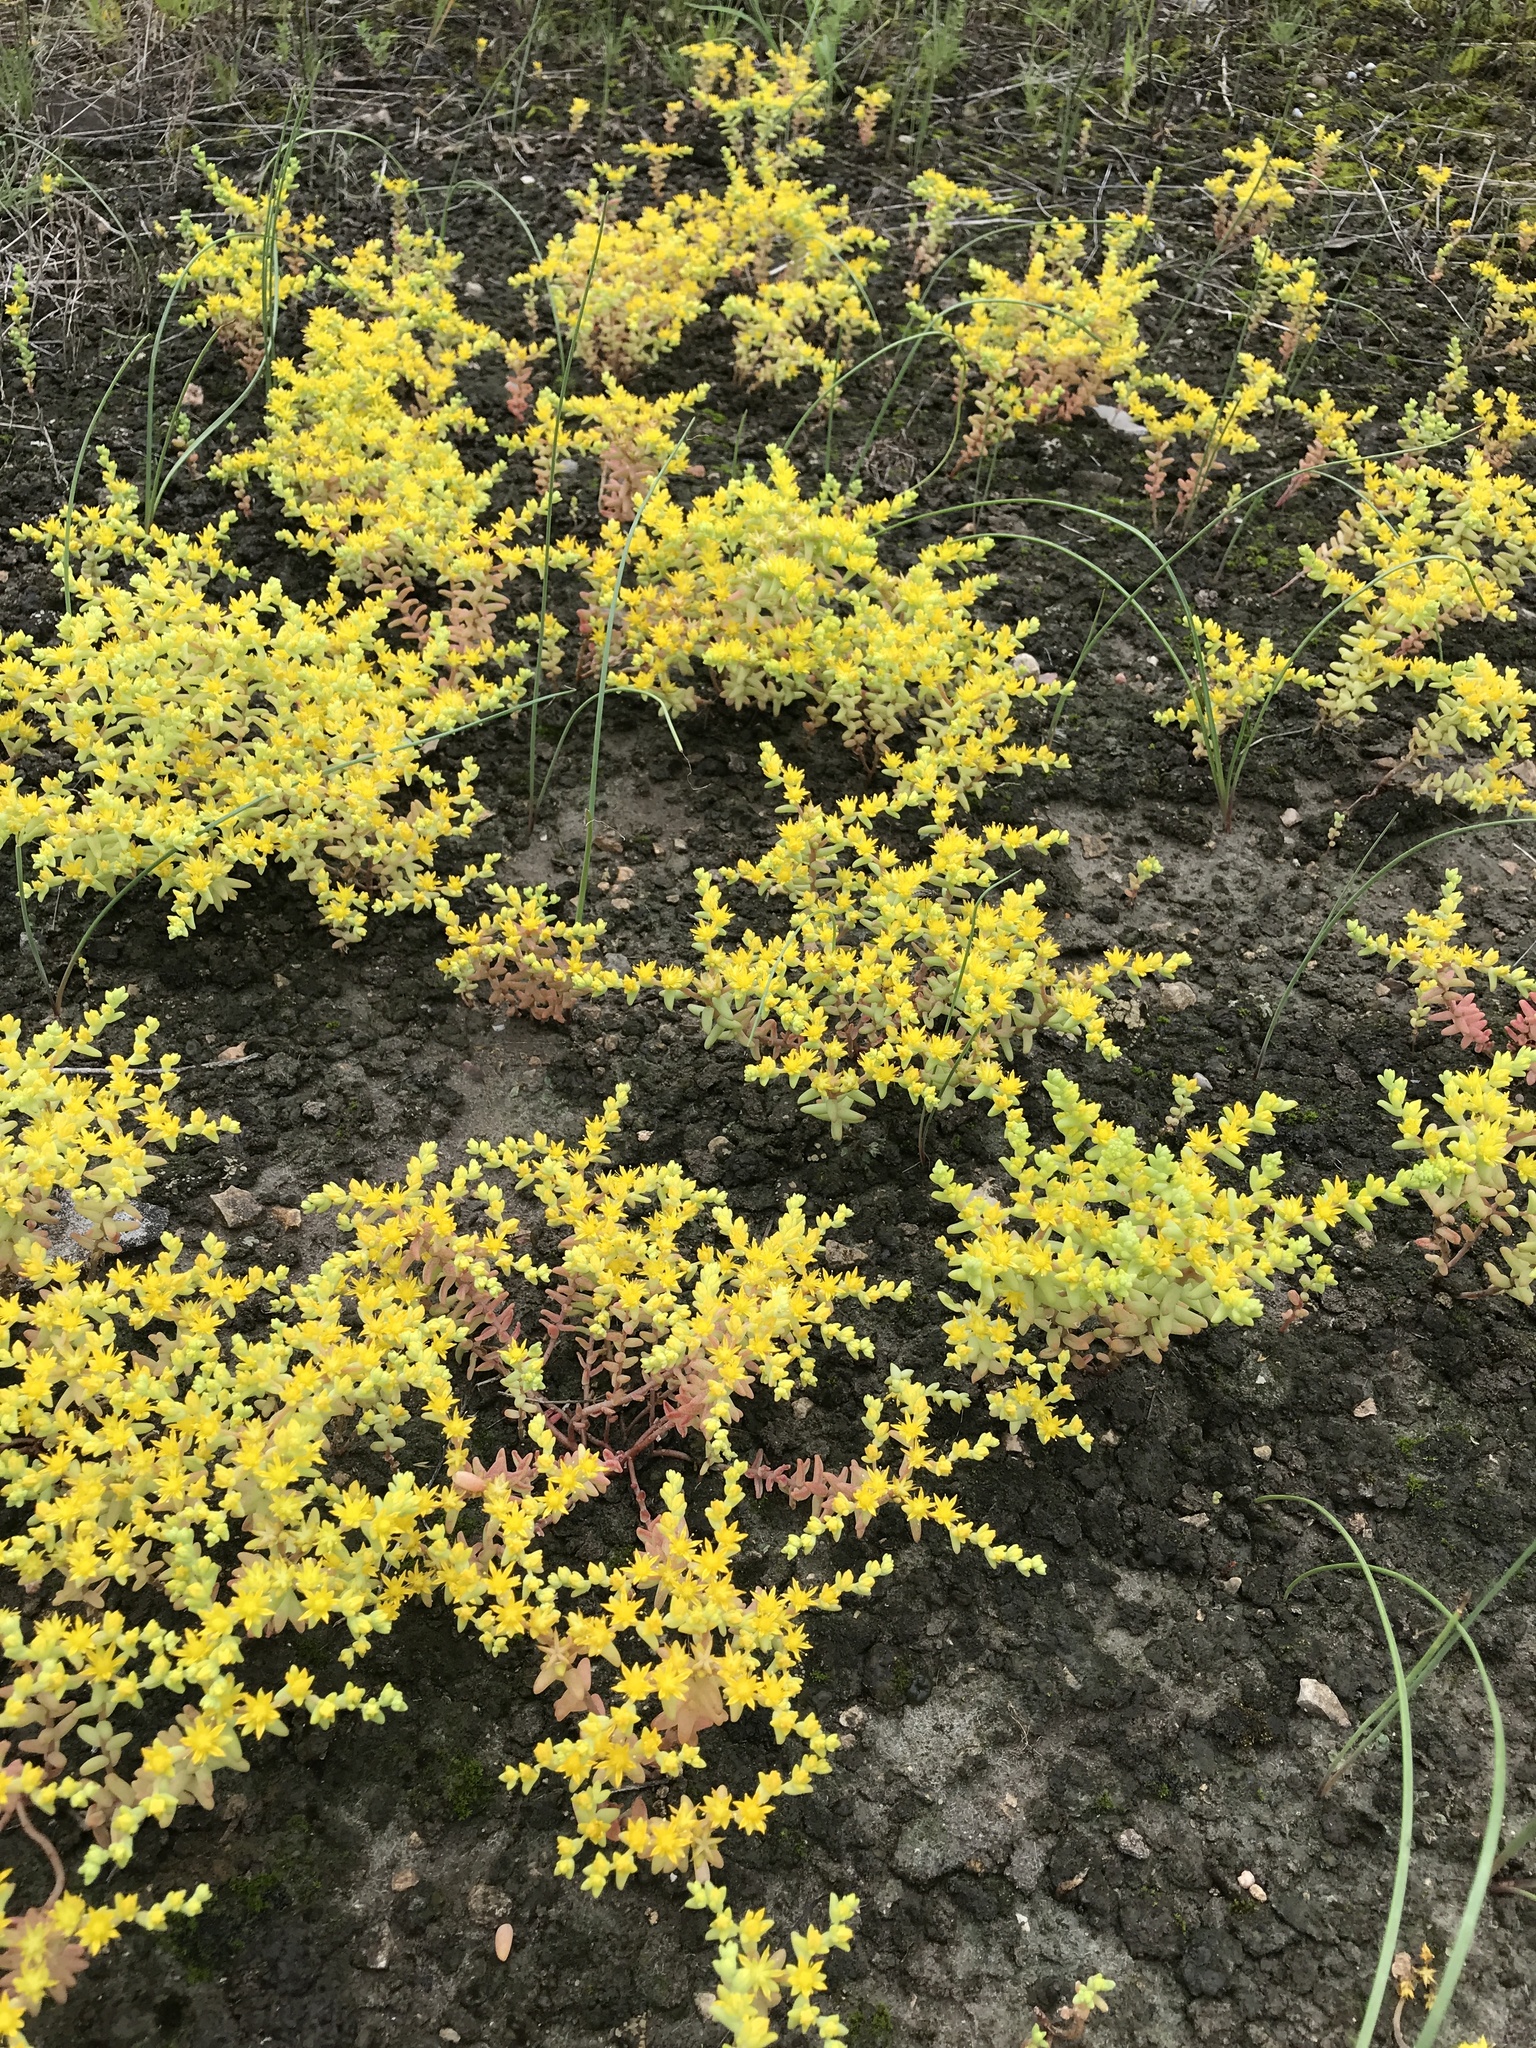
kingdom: Plantae
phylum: Tracheophyta
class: Magnoliopsida
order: Saxifragales
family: Crassulaceae
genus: Sedum
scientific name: Sedum nuttallii
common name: Yellow stonecrop
